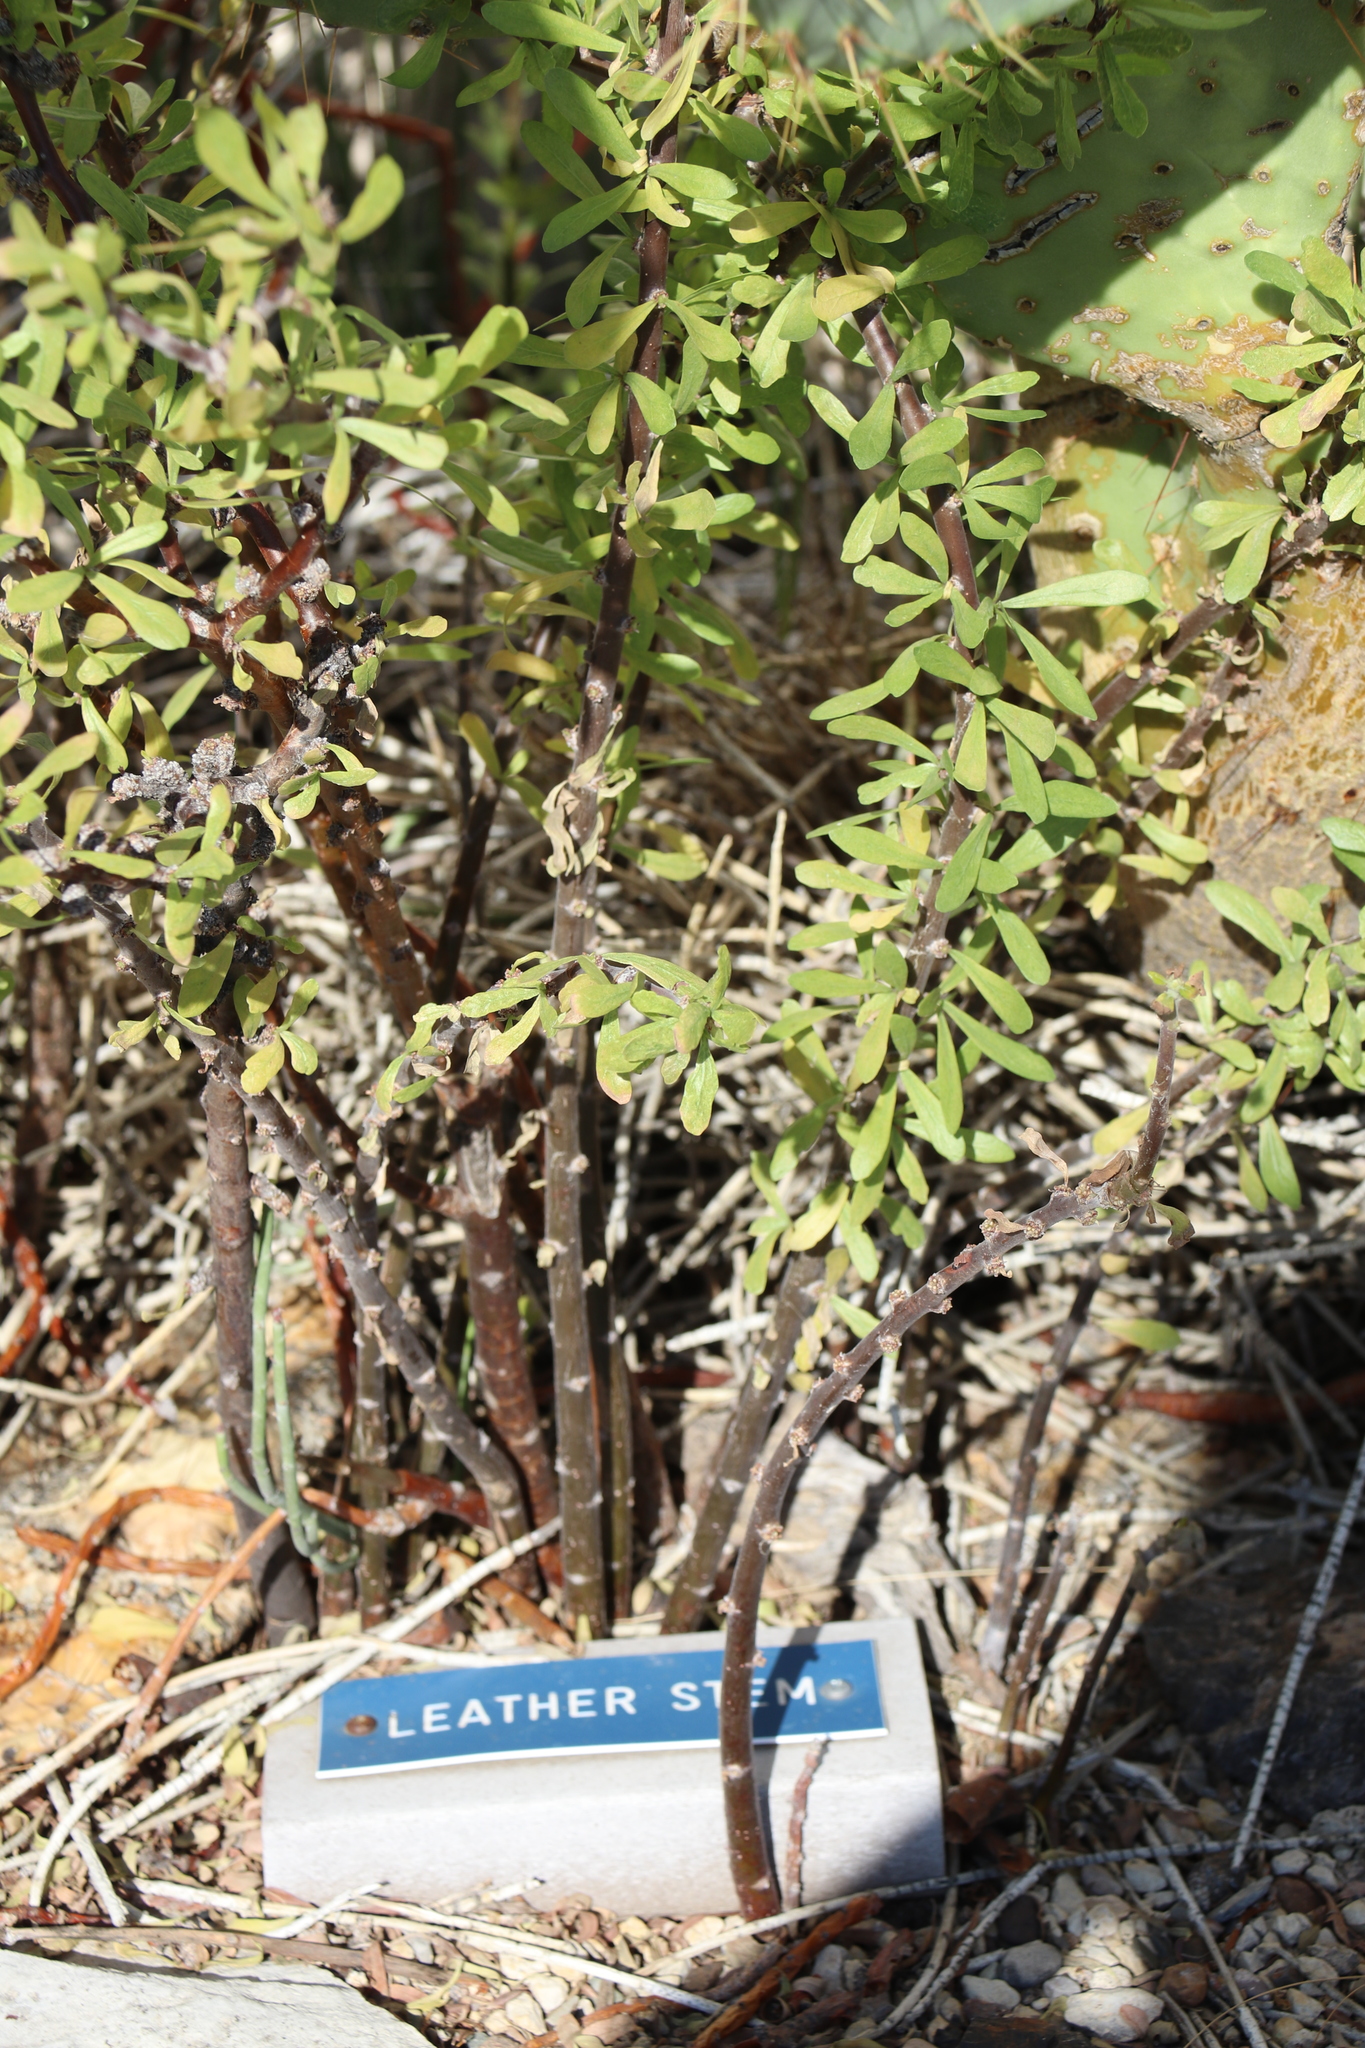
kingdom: Plantae
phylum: Tracheophyta
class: Magnoliopsida
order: Malpighiales
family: Euphorbiaceae
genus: Jatropha
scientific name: Jatropha dioica
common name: Leatherstem
